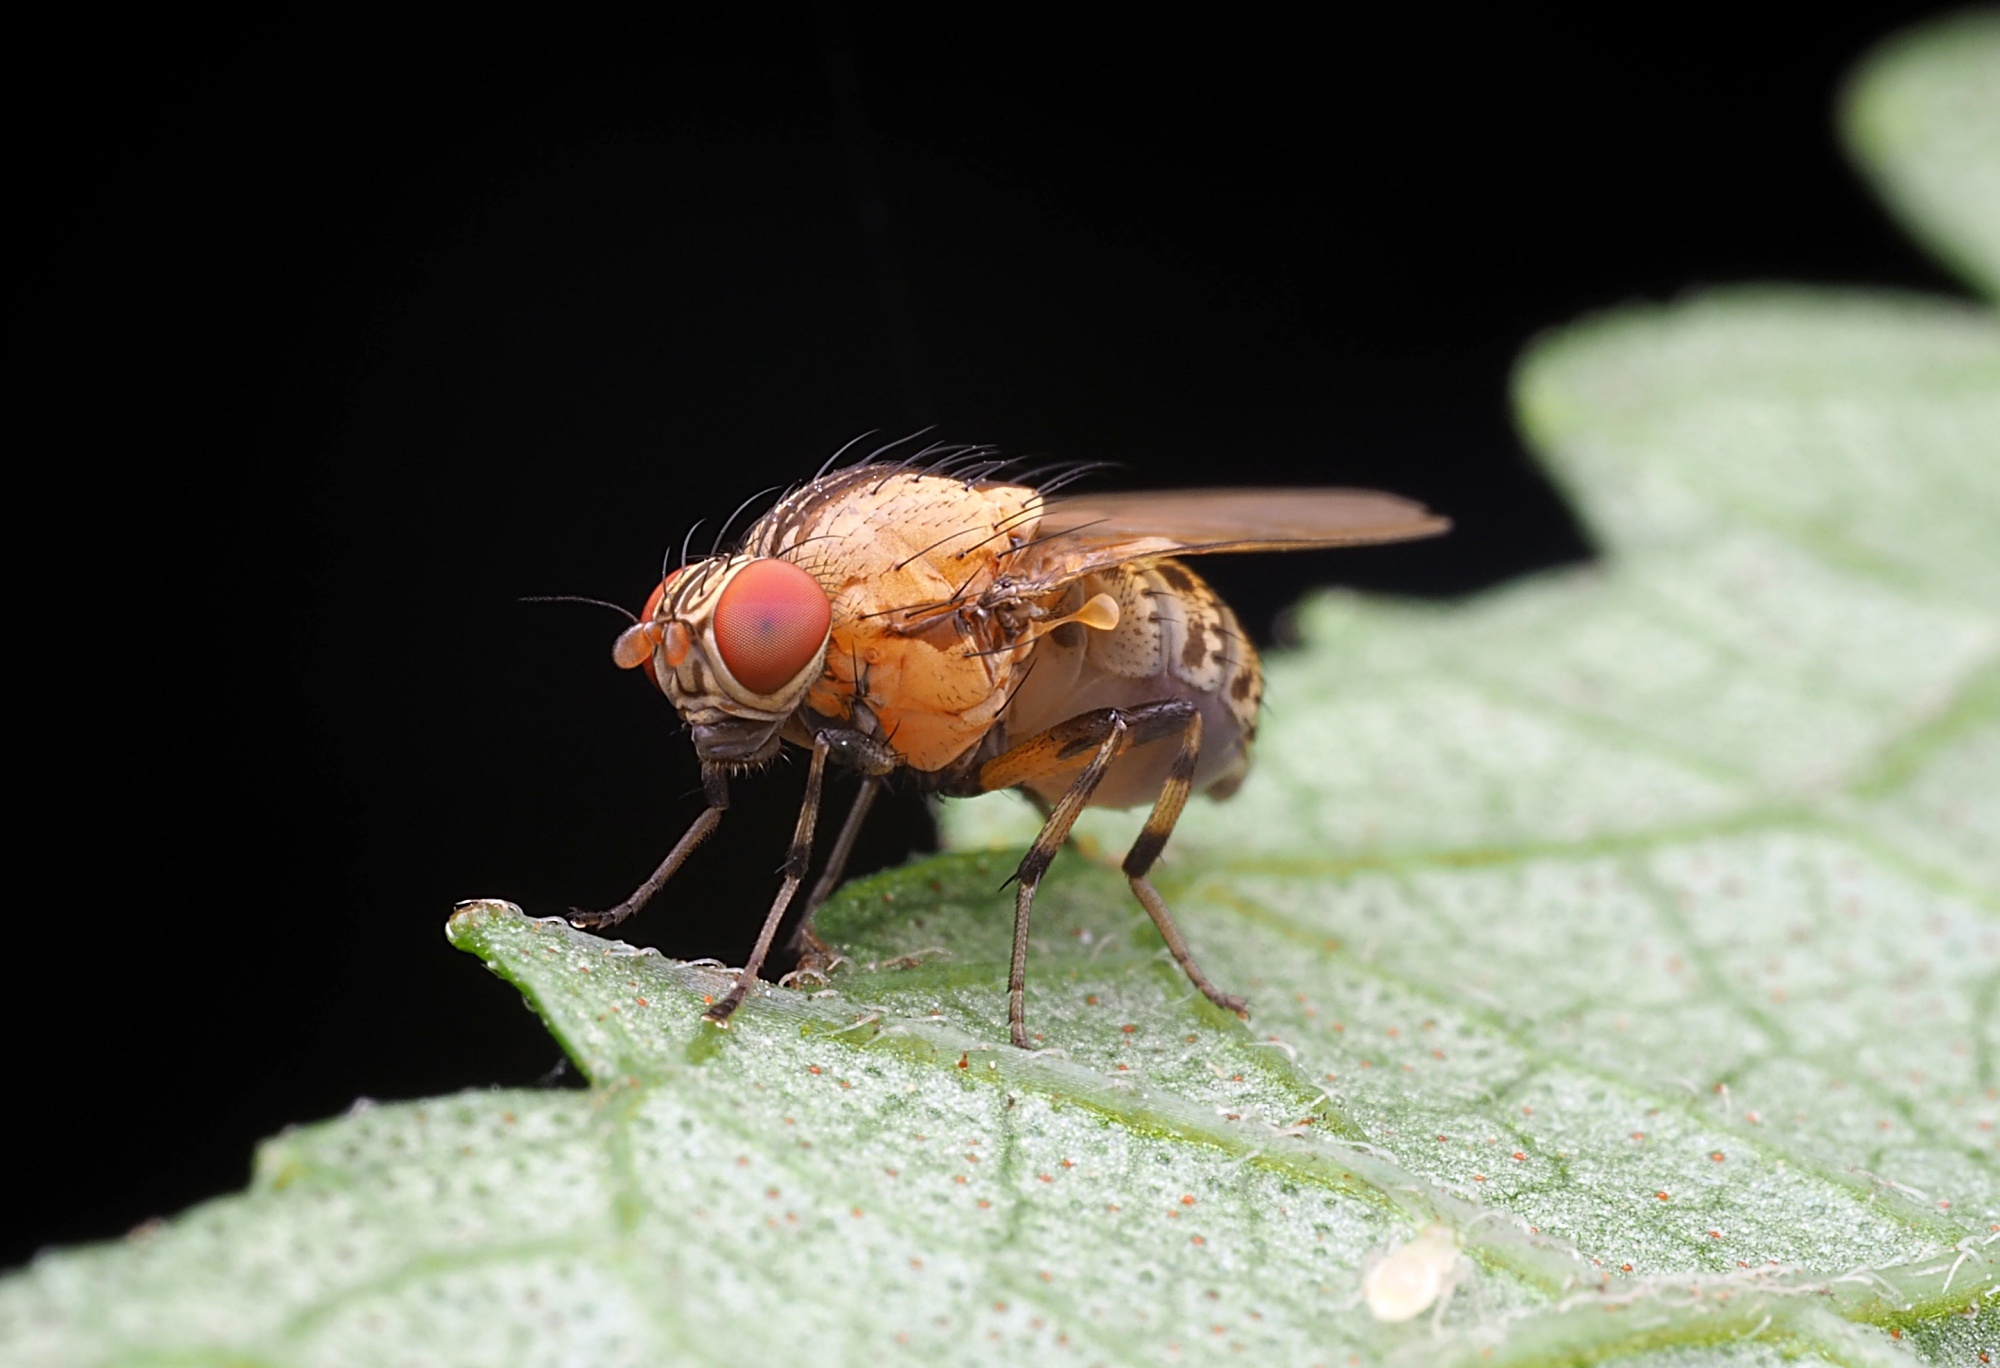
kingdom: Animalia
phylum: Arthropoda
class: Insecta
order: Diptera
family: Lauxaniidae
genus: Sapromyza
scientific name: Sapromyza neozelandica
